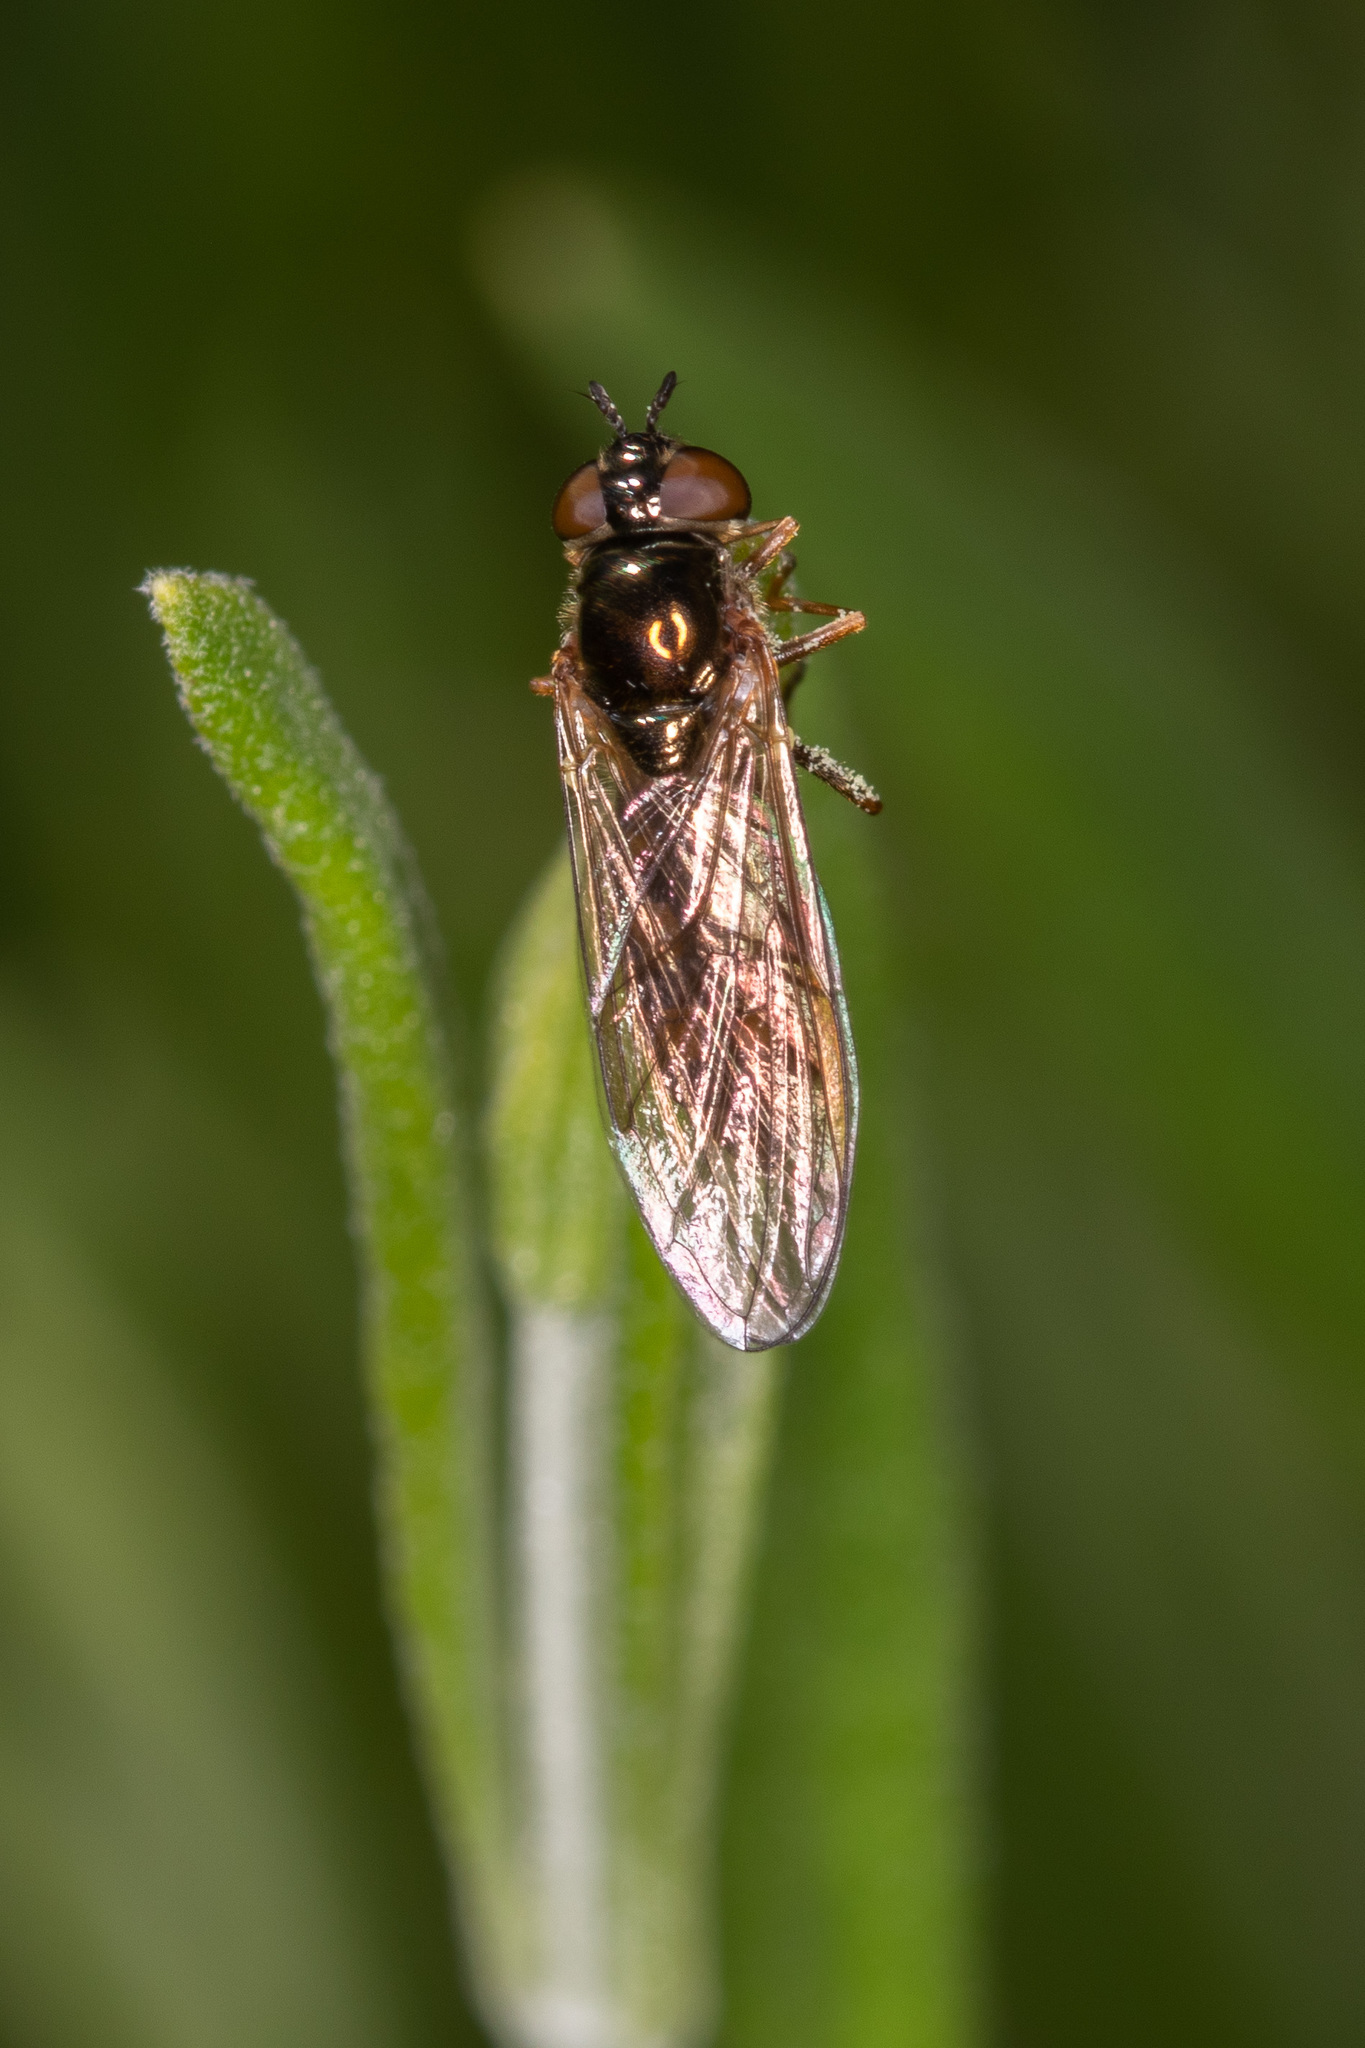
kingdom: Animalia
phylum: Arthropoda
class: Insecta
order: Diptera
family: Syrphidae
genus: Melanostoma
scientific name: Melanostoma mellina
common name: Hover fly
